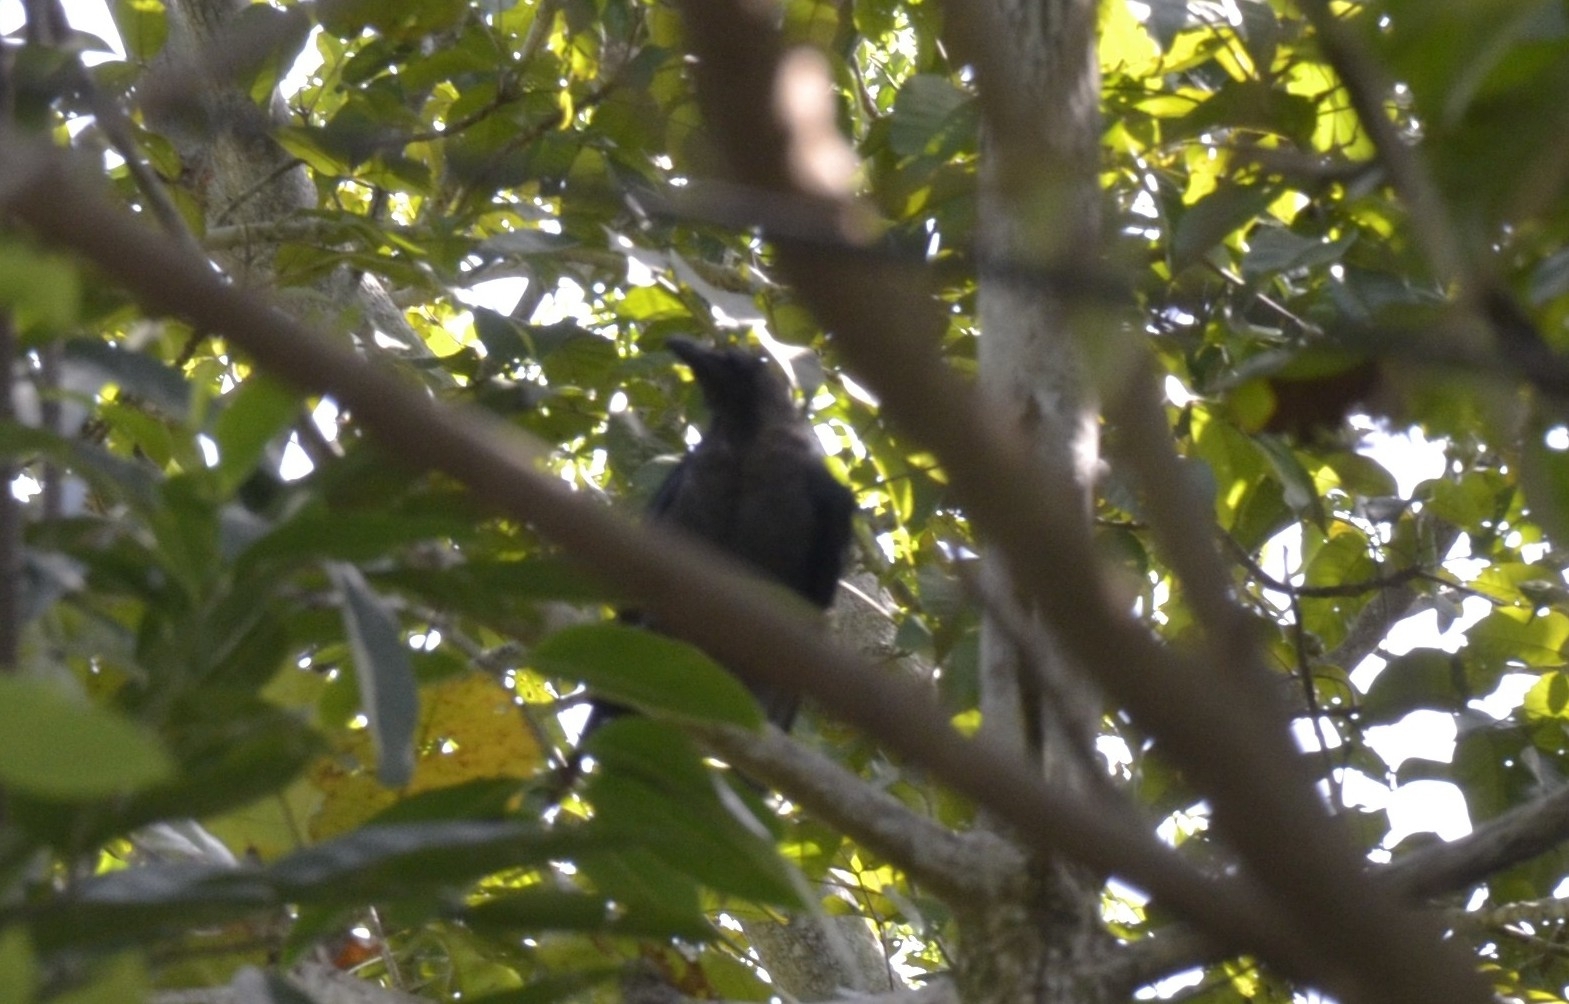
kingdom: Animalia
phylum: Chordata
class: Aves
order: Passeriformes
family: Corvidae
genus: Corvus
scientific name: Corvus splendens
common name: House crow
